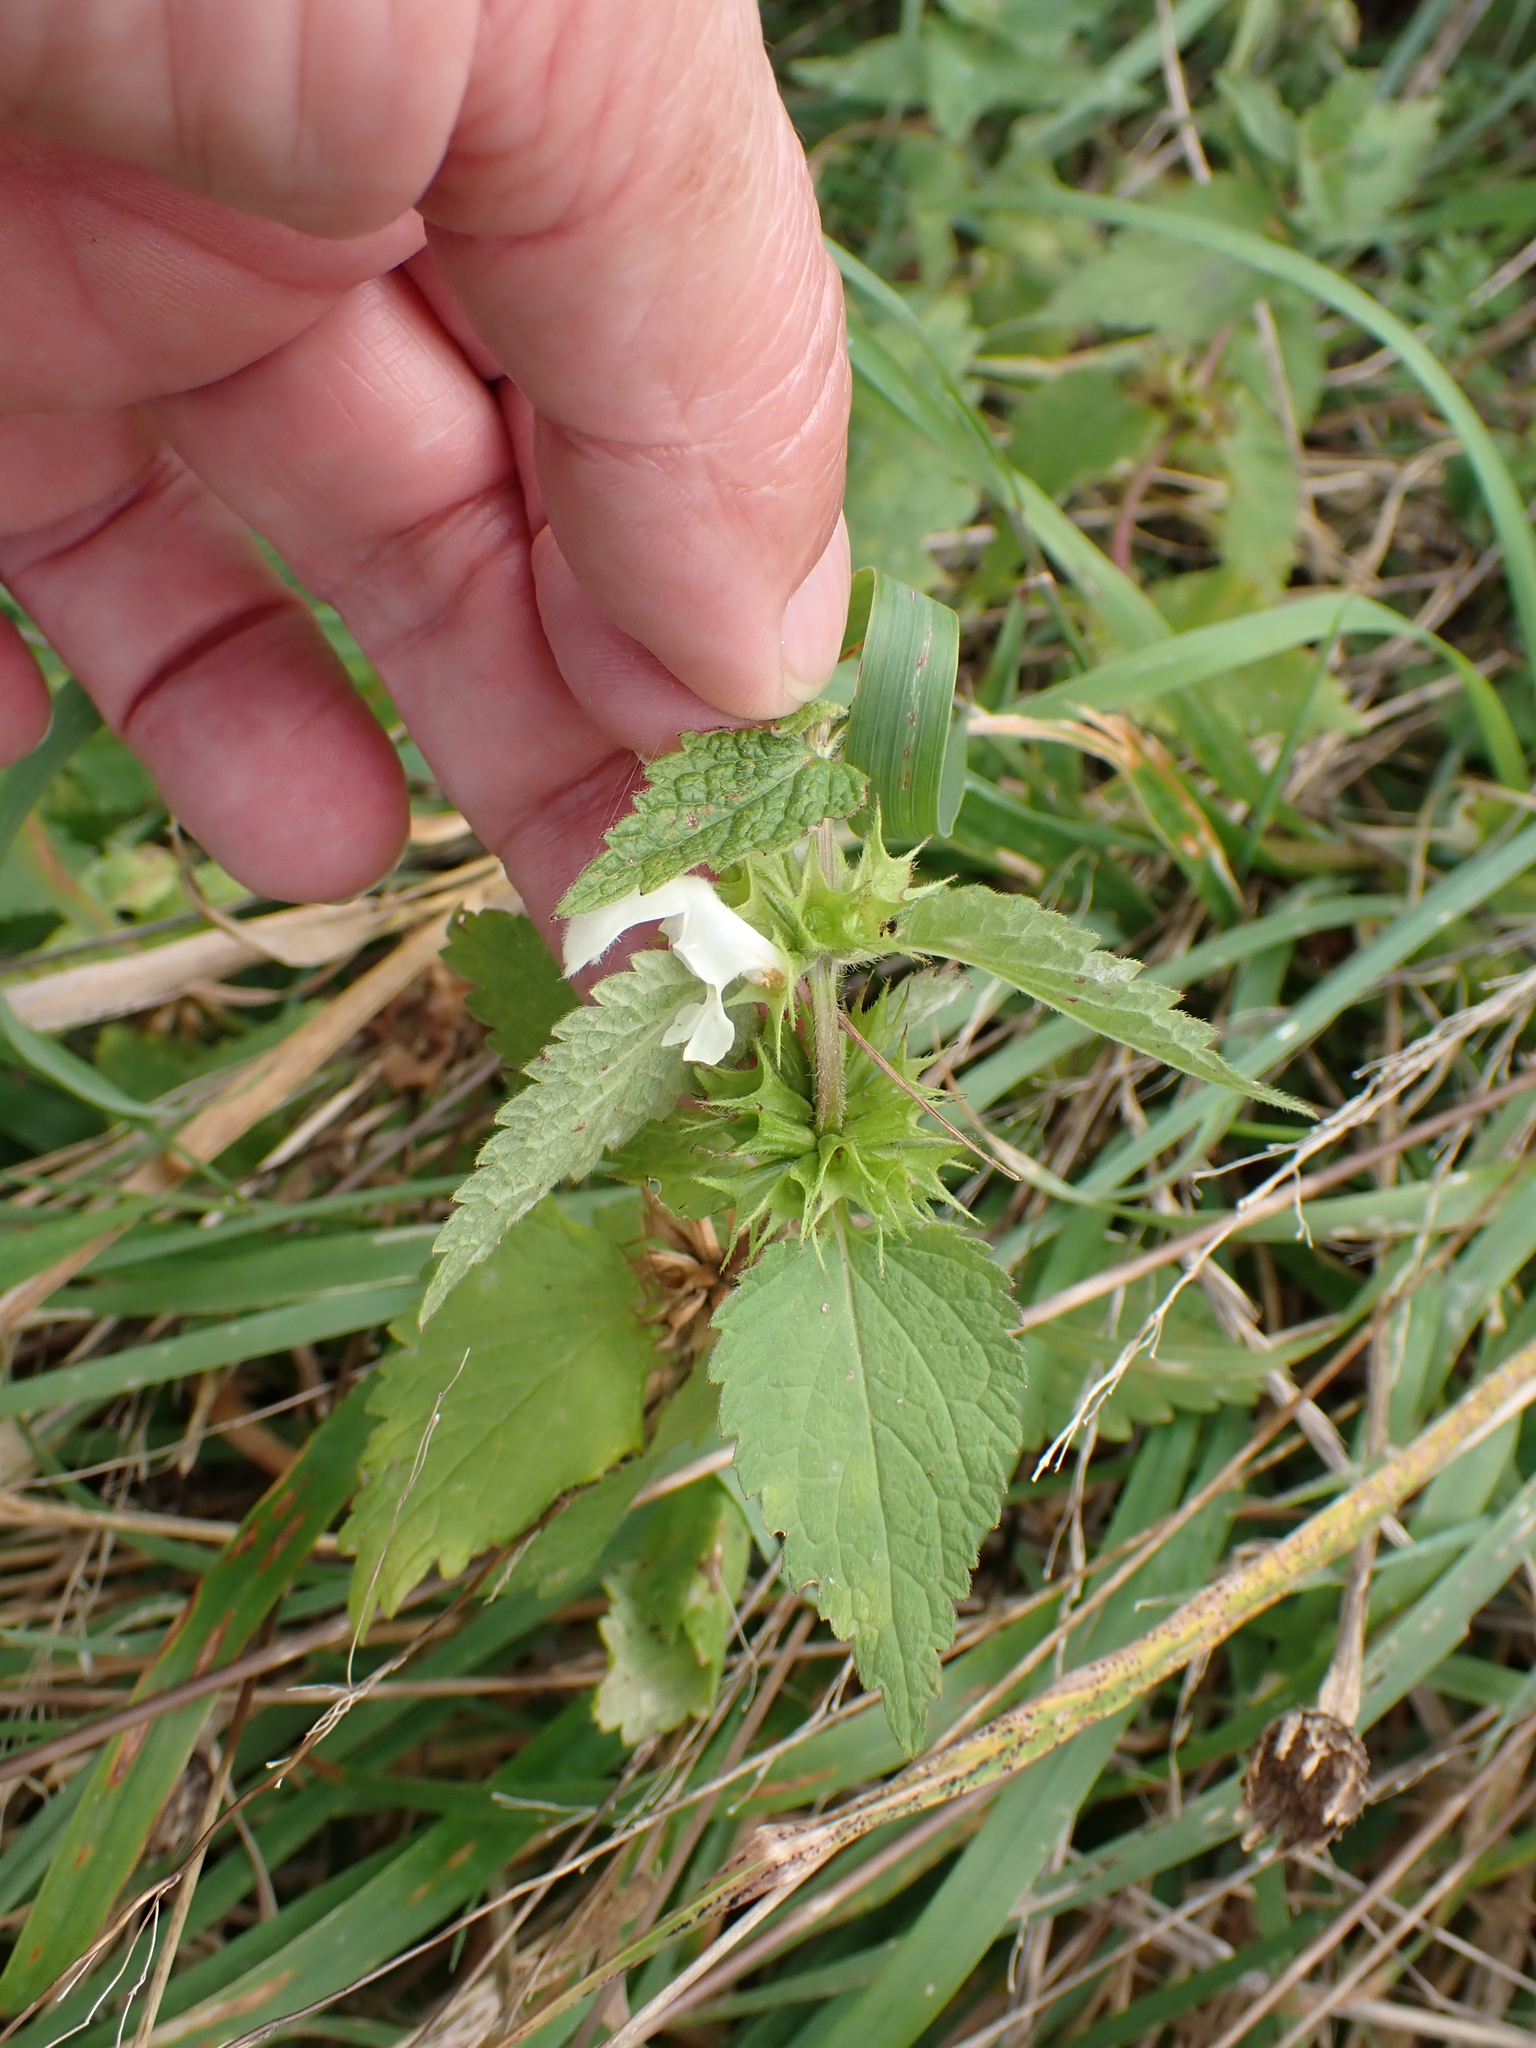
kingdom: Plantae
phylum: Tracheophyta
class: Magnoliopsida
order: Lamiales
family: Lamiaceae
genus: Lamium
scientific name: Lamium album
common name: White dead-nettle
